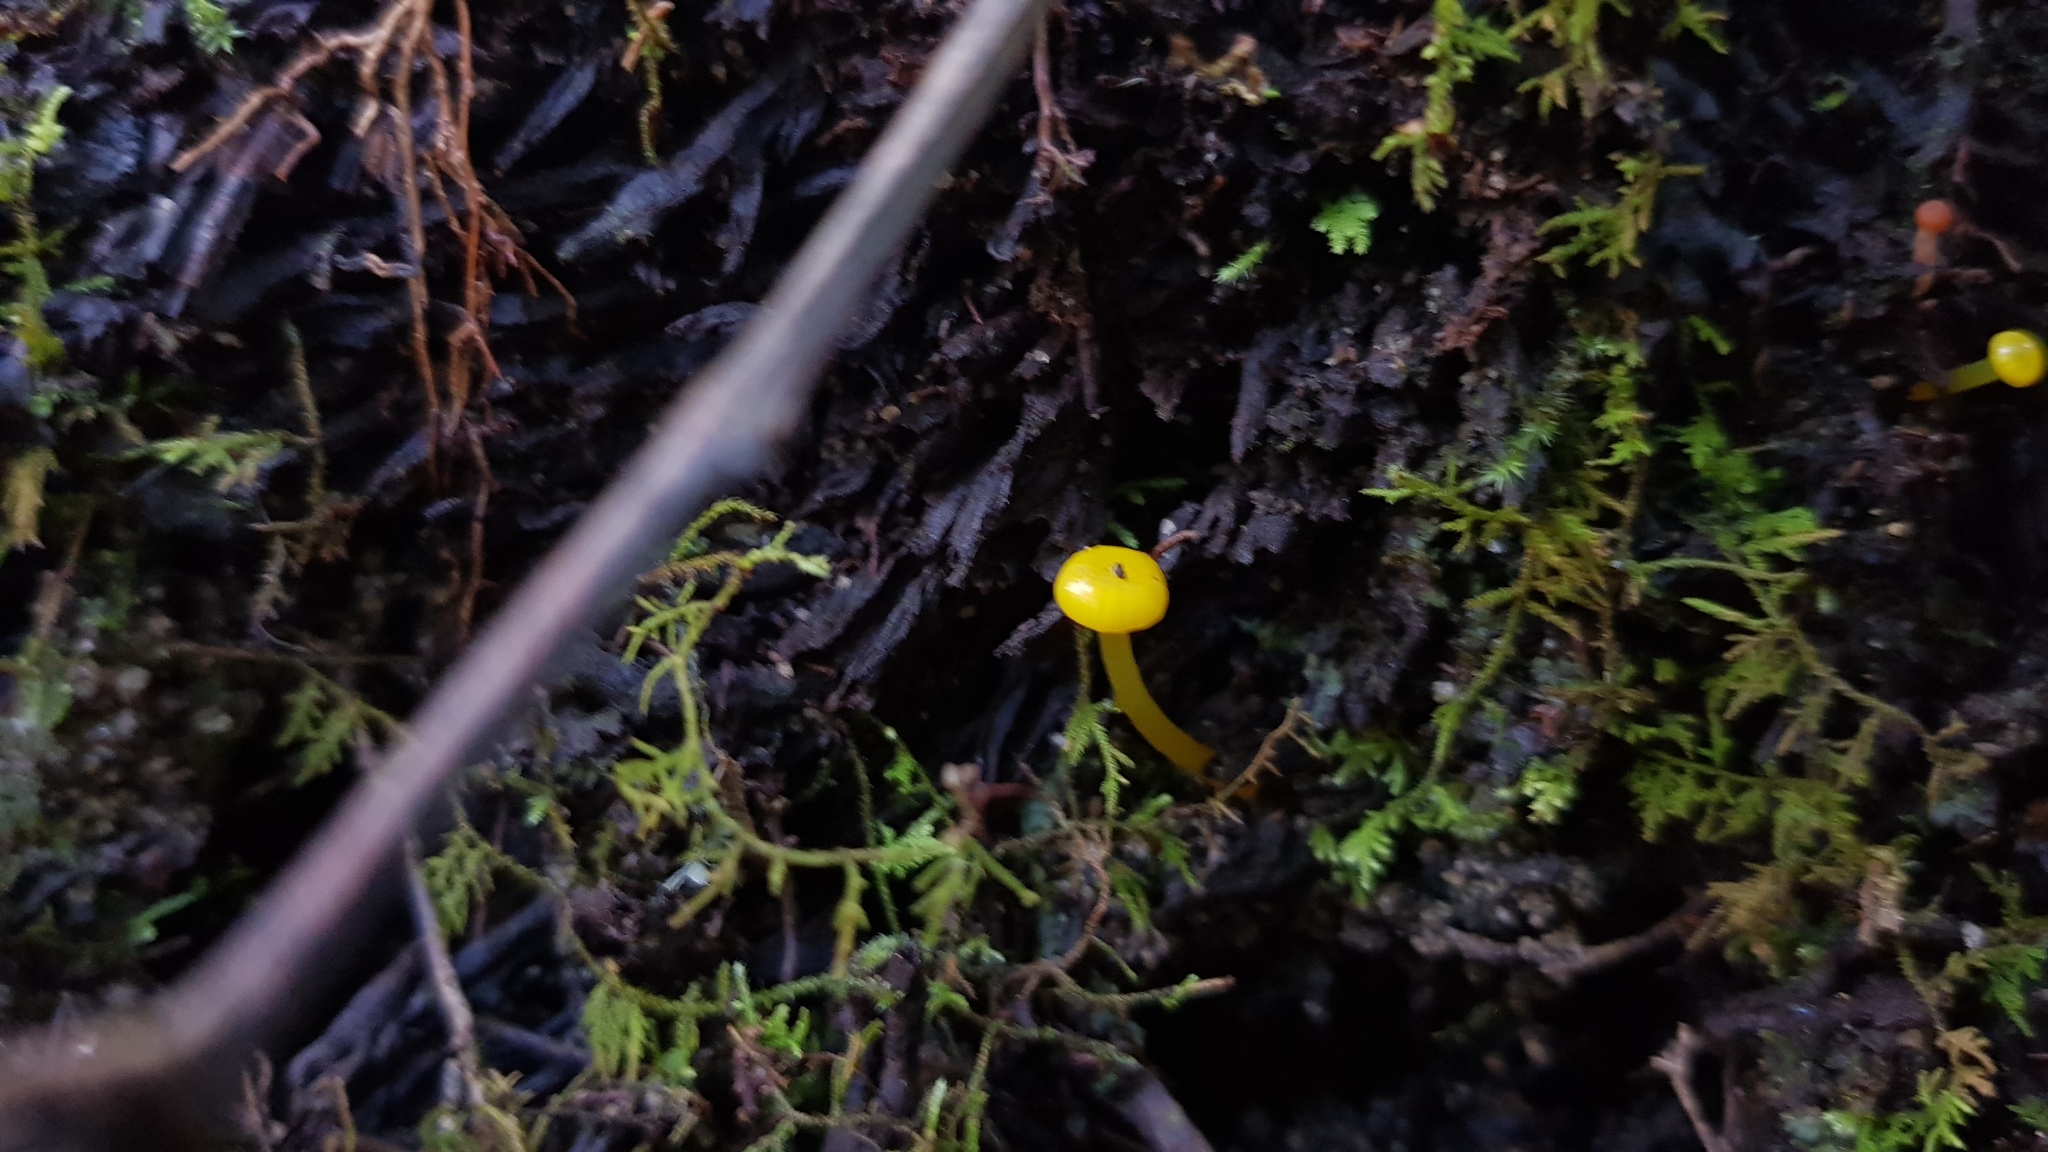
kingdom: Fungi
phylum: Basidiomycota
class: Agaricomycetes
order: Agaricales
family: Hygrophoraceae
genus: Gloioxanthomyces
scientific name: Gloioxanthomyces
